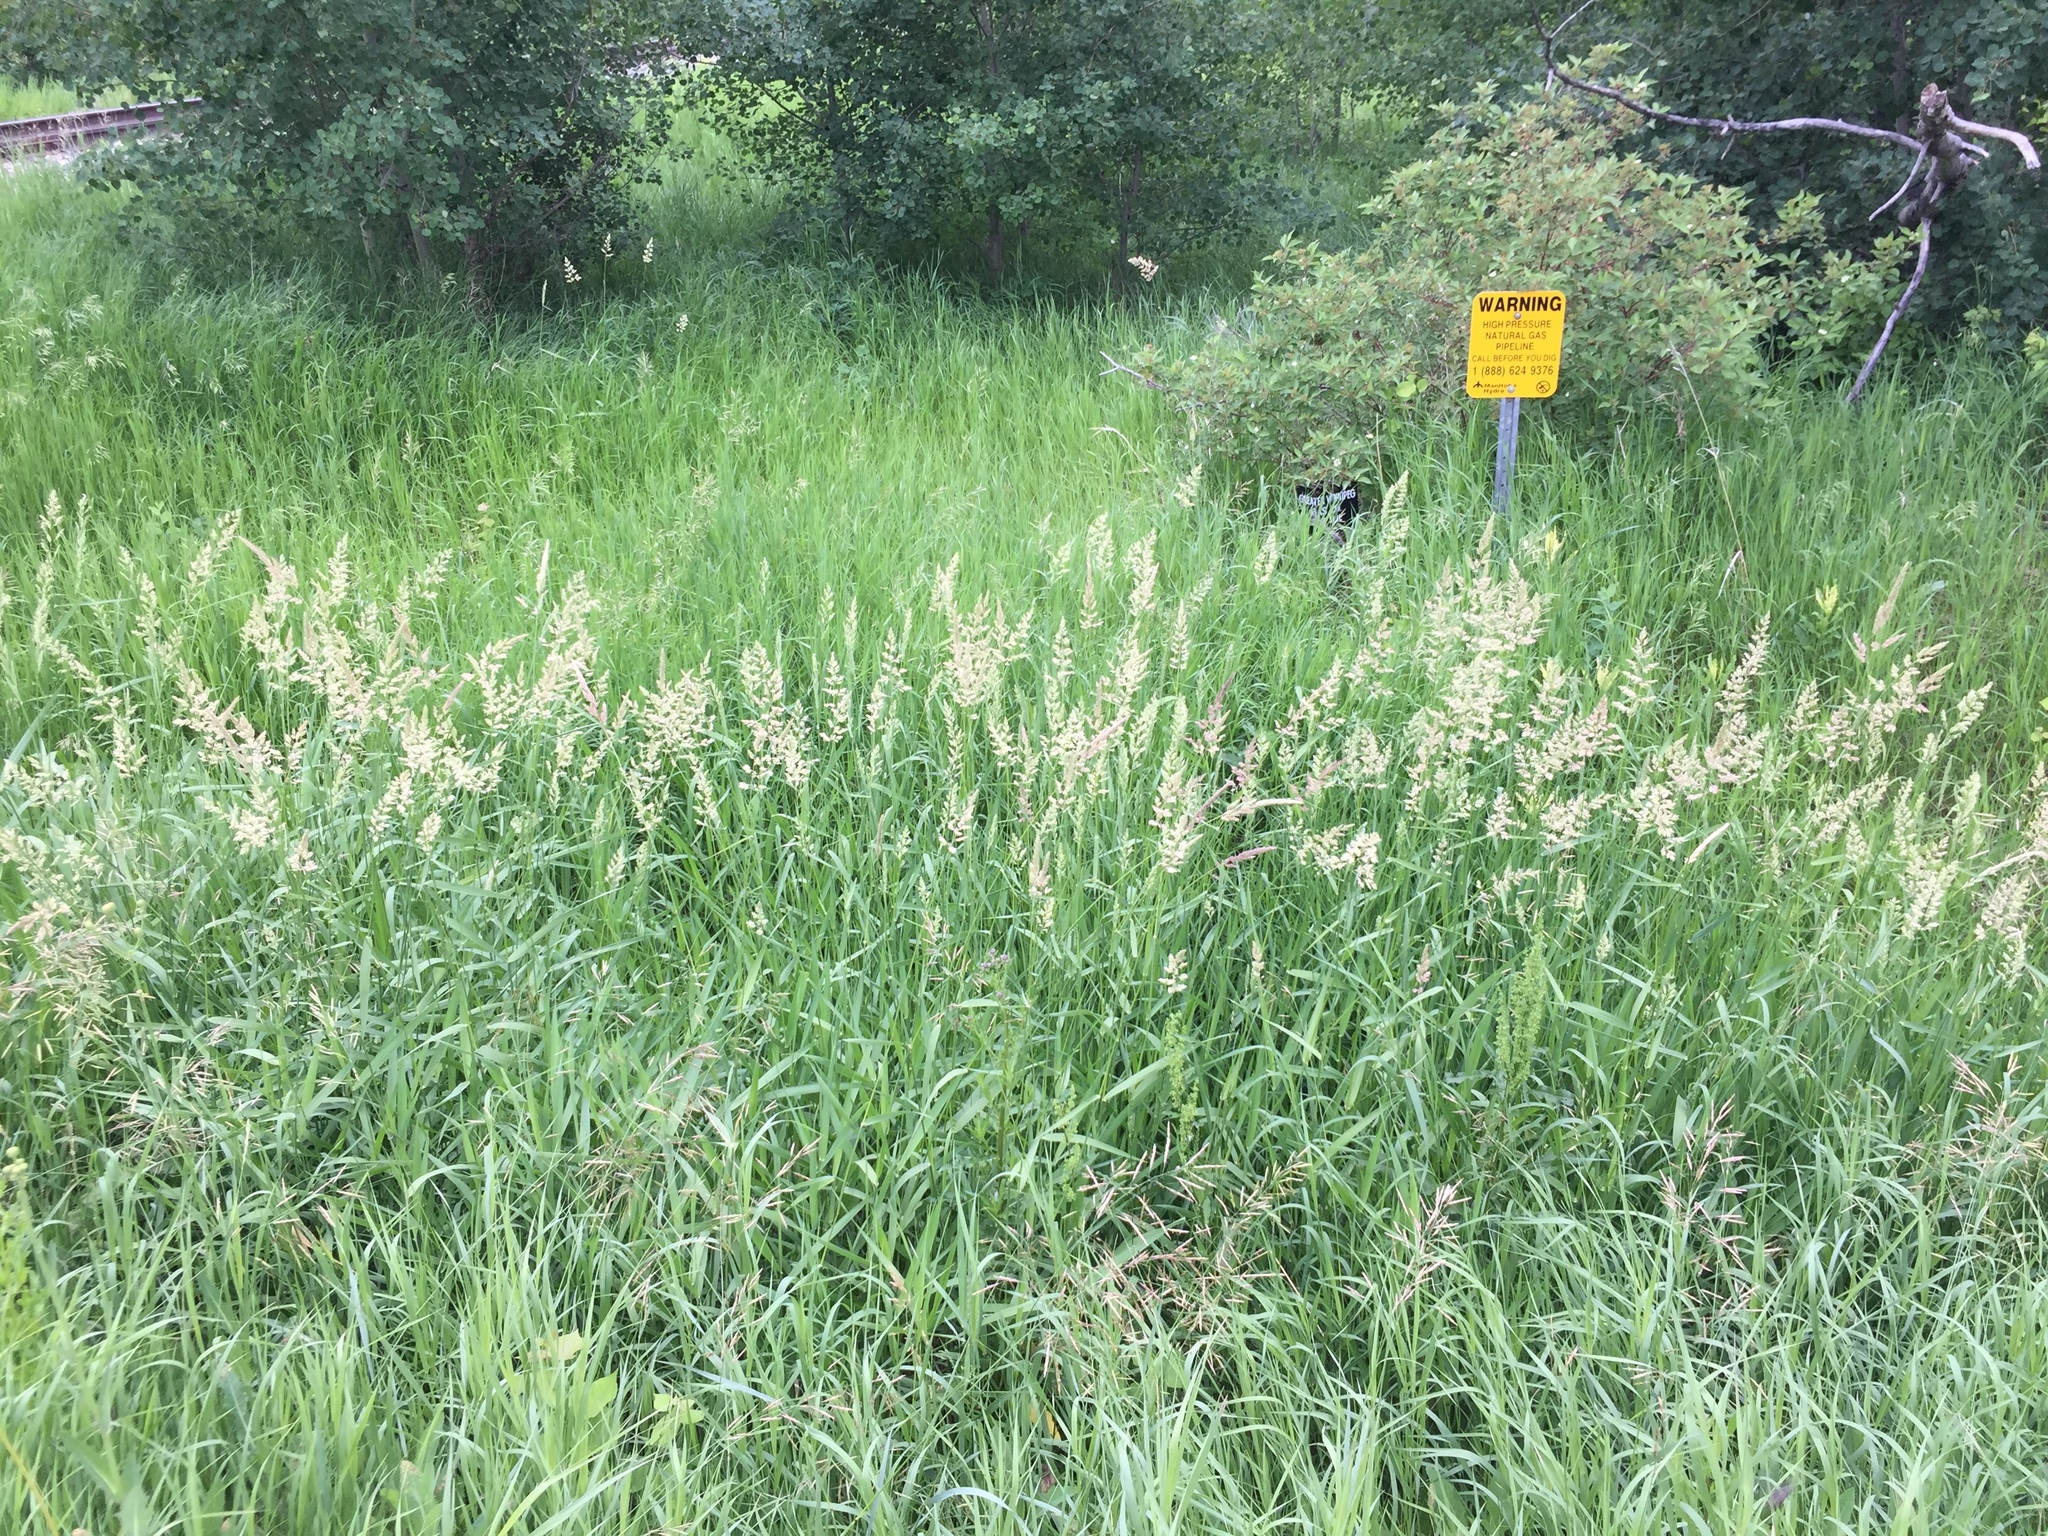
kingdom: Plantae
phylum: Tracheophyta
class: Liliopsida
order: Poales
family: Poaceae
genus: Phalaris
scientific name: Phalaris arundinacea
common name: Reed canary-grass
